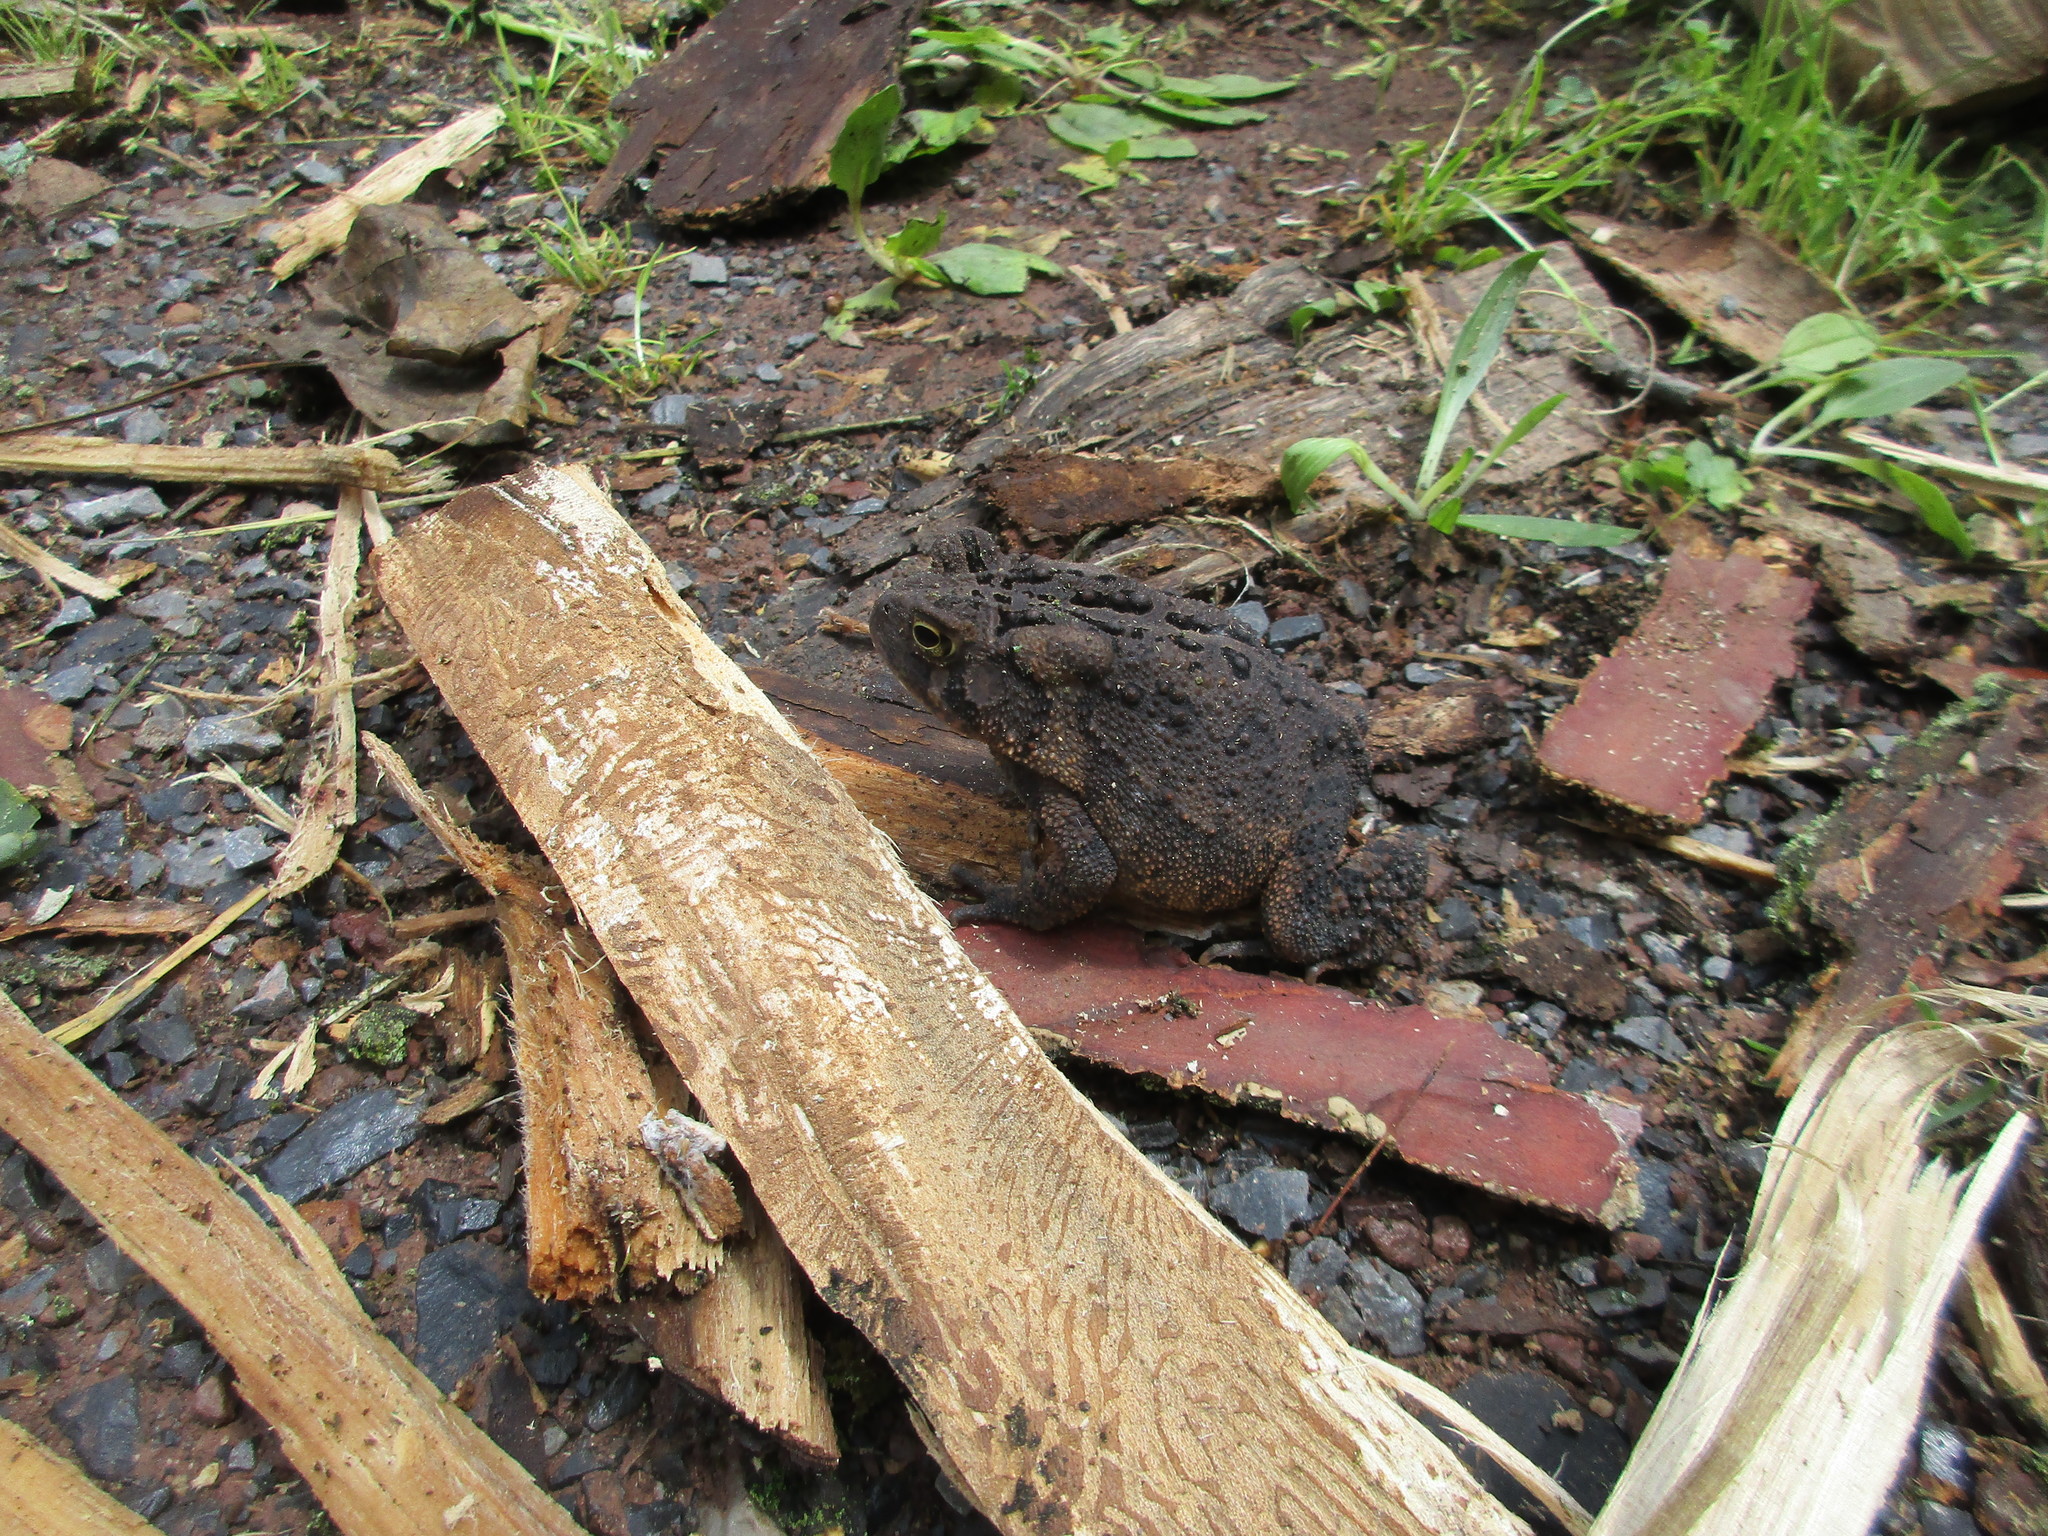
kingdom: Animalia
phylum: Chordata
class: Amphibia
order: Anura
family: Bufonidae
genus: Anaxyrus
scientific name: Anaxyrus americanus
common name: American toad
